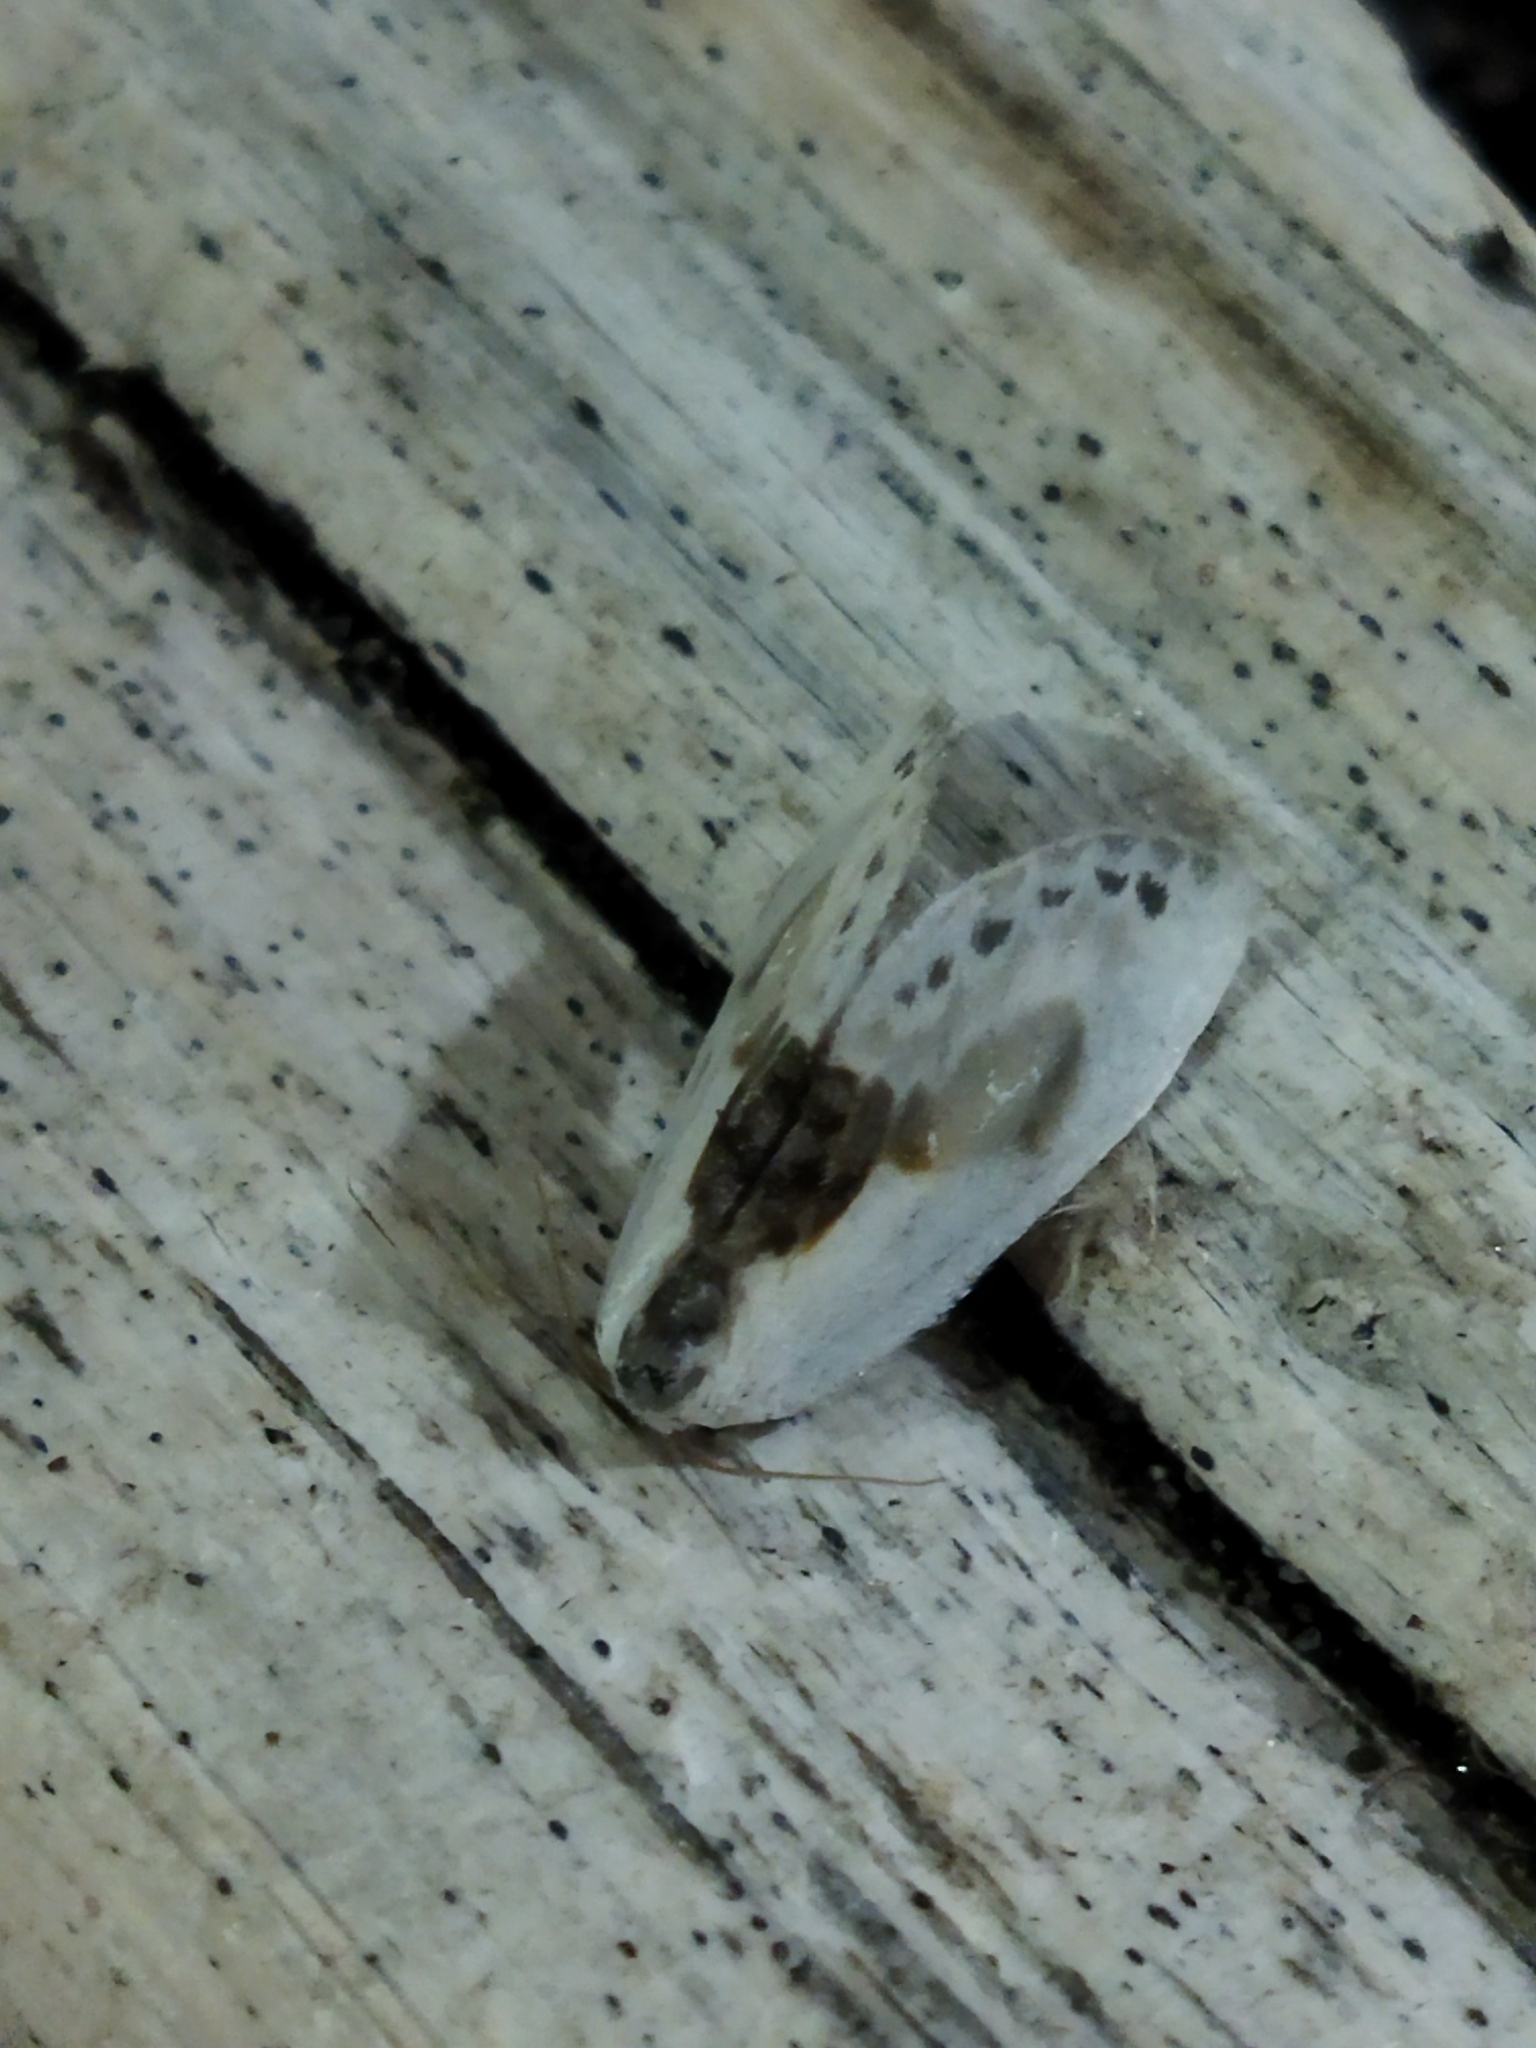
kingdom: Animalia
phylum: Arthropoda
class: Insecta
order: Lepidoptera
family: Drepanidae
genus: Cilix
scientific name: Cilix glaucata
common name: Chinese character
